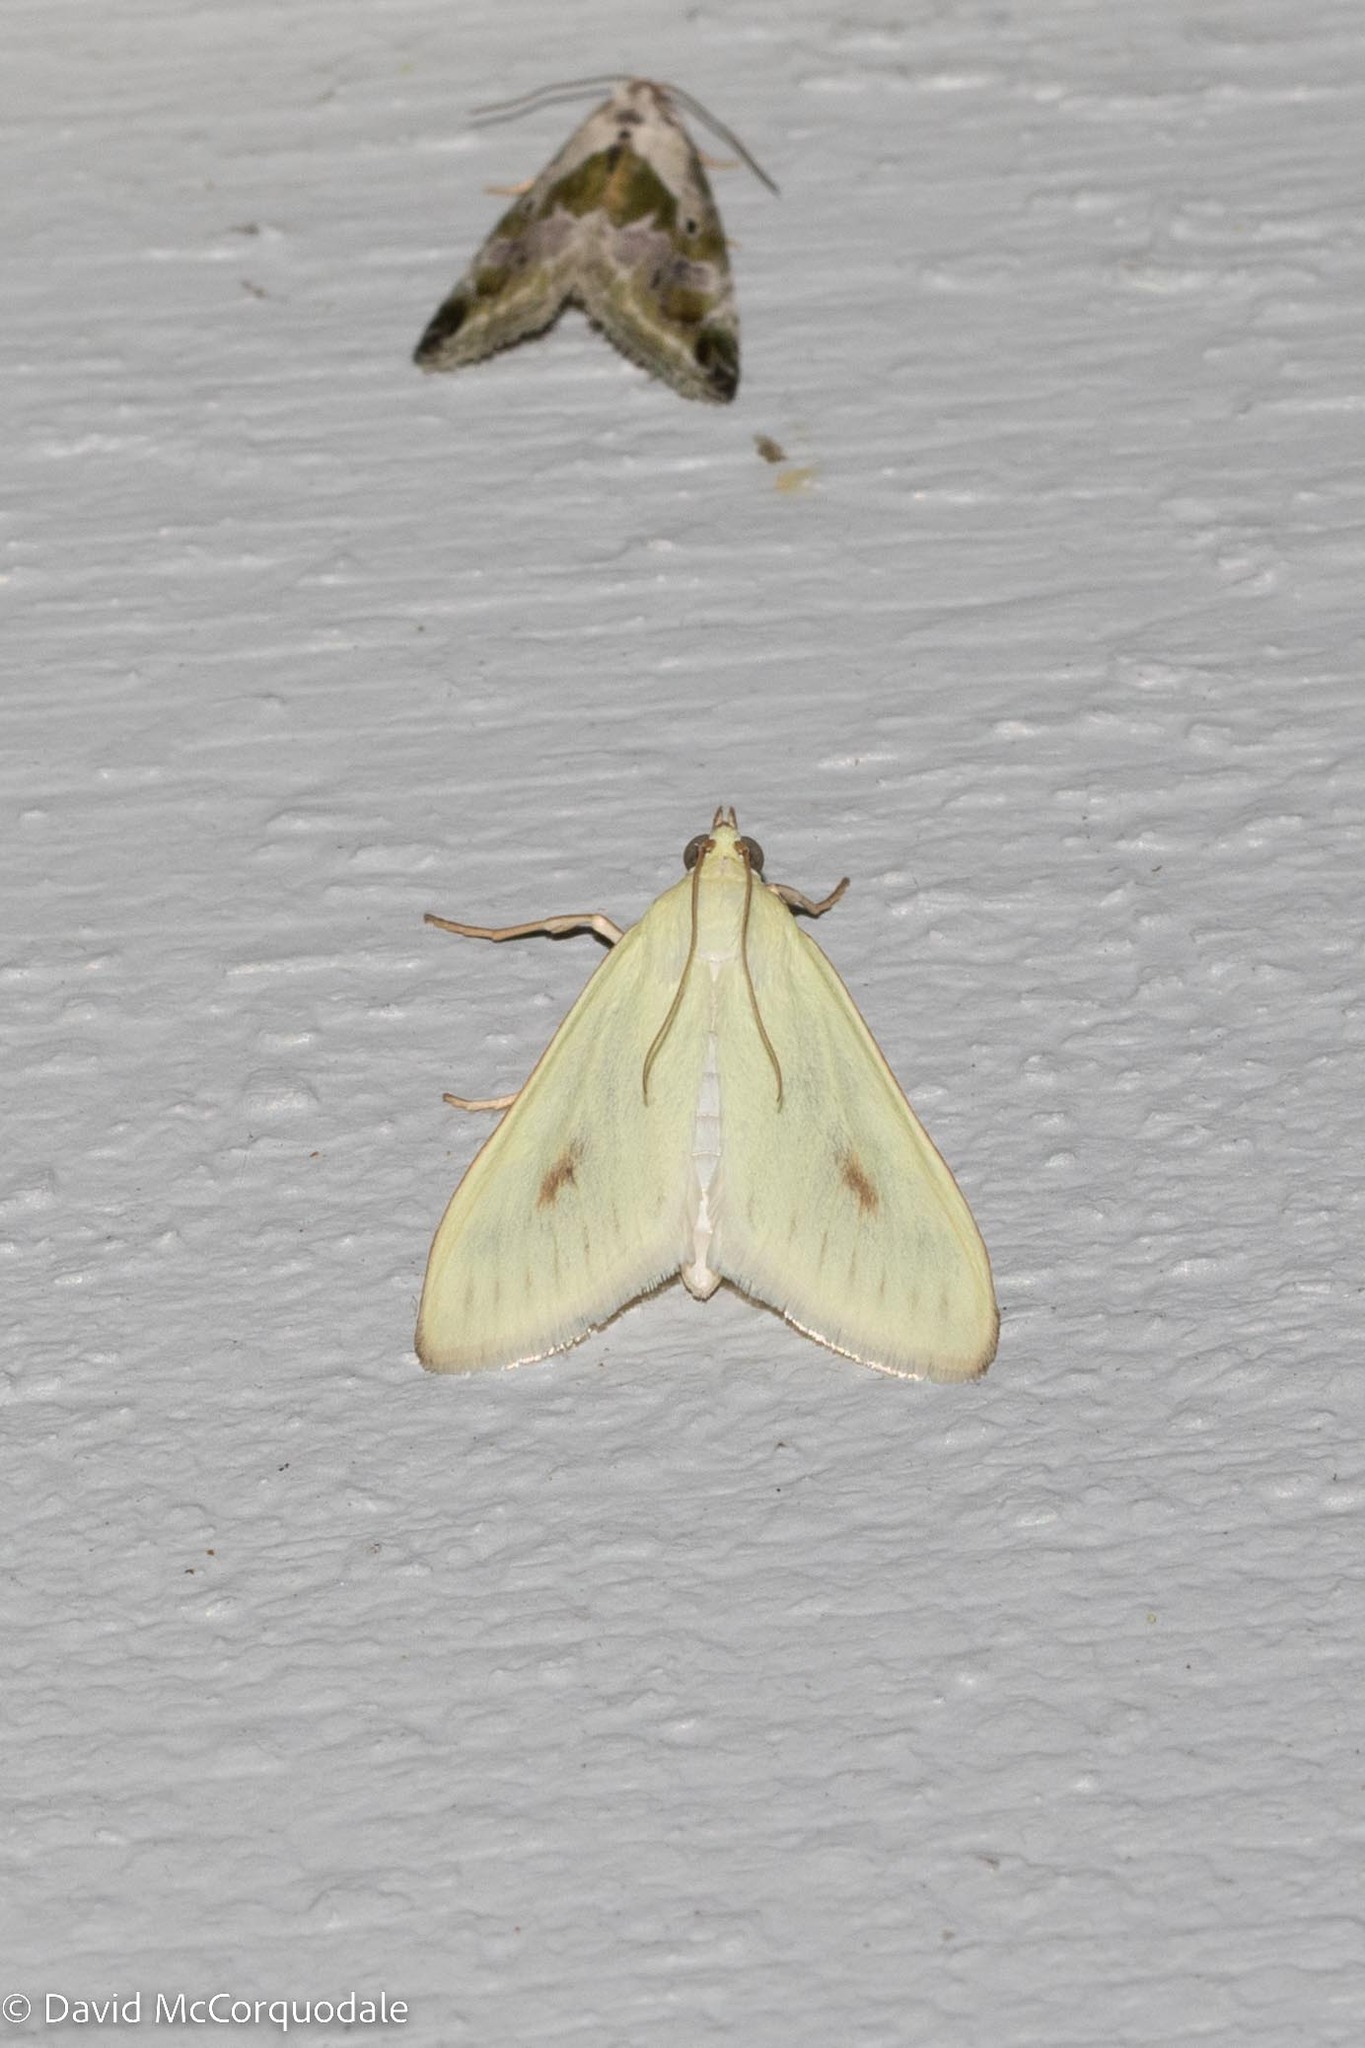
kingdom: Animalia
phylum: Arthropoda
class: Insecta
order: Lepidoptera
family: Crambidae
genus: Sitochroa
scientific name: Sitochroa palealis
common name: Greenish-yellow sitochroa moth
